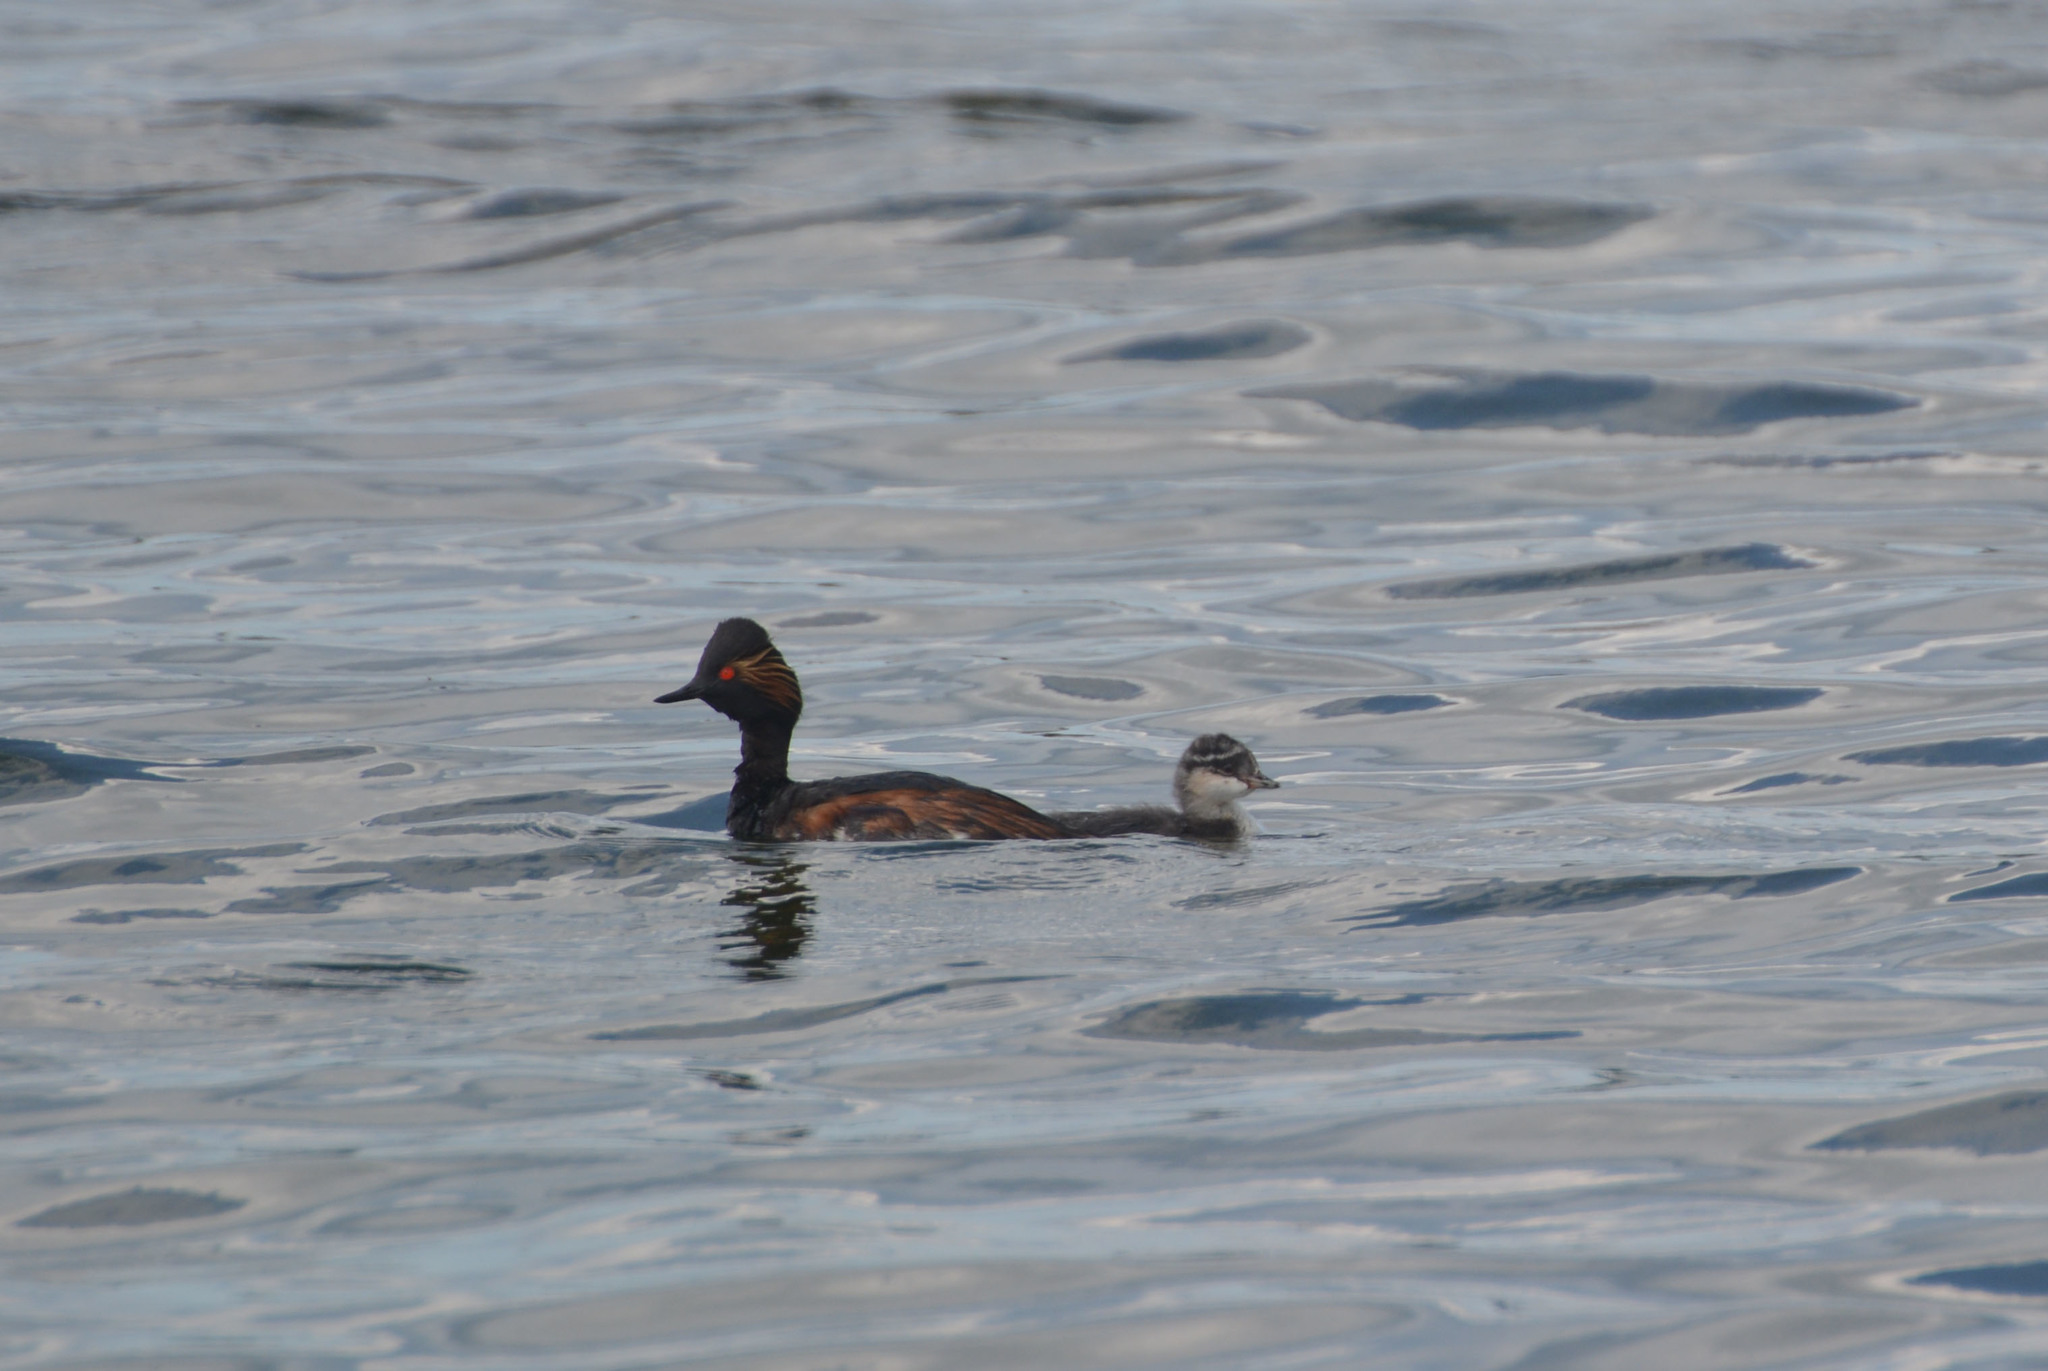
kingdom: Animalia
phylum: Chordata
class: Aves
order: Podicipediformes
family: Podicipedidae
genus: Podiceps
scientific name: Podiceps nigricollis
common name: Black-necked grebe
